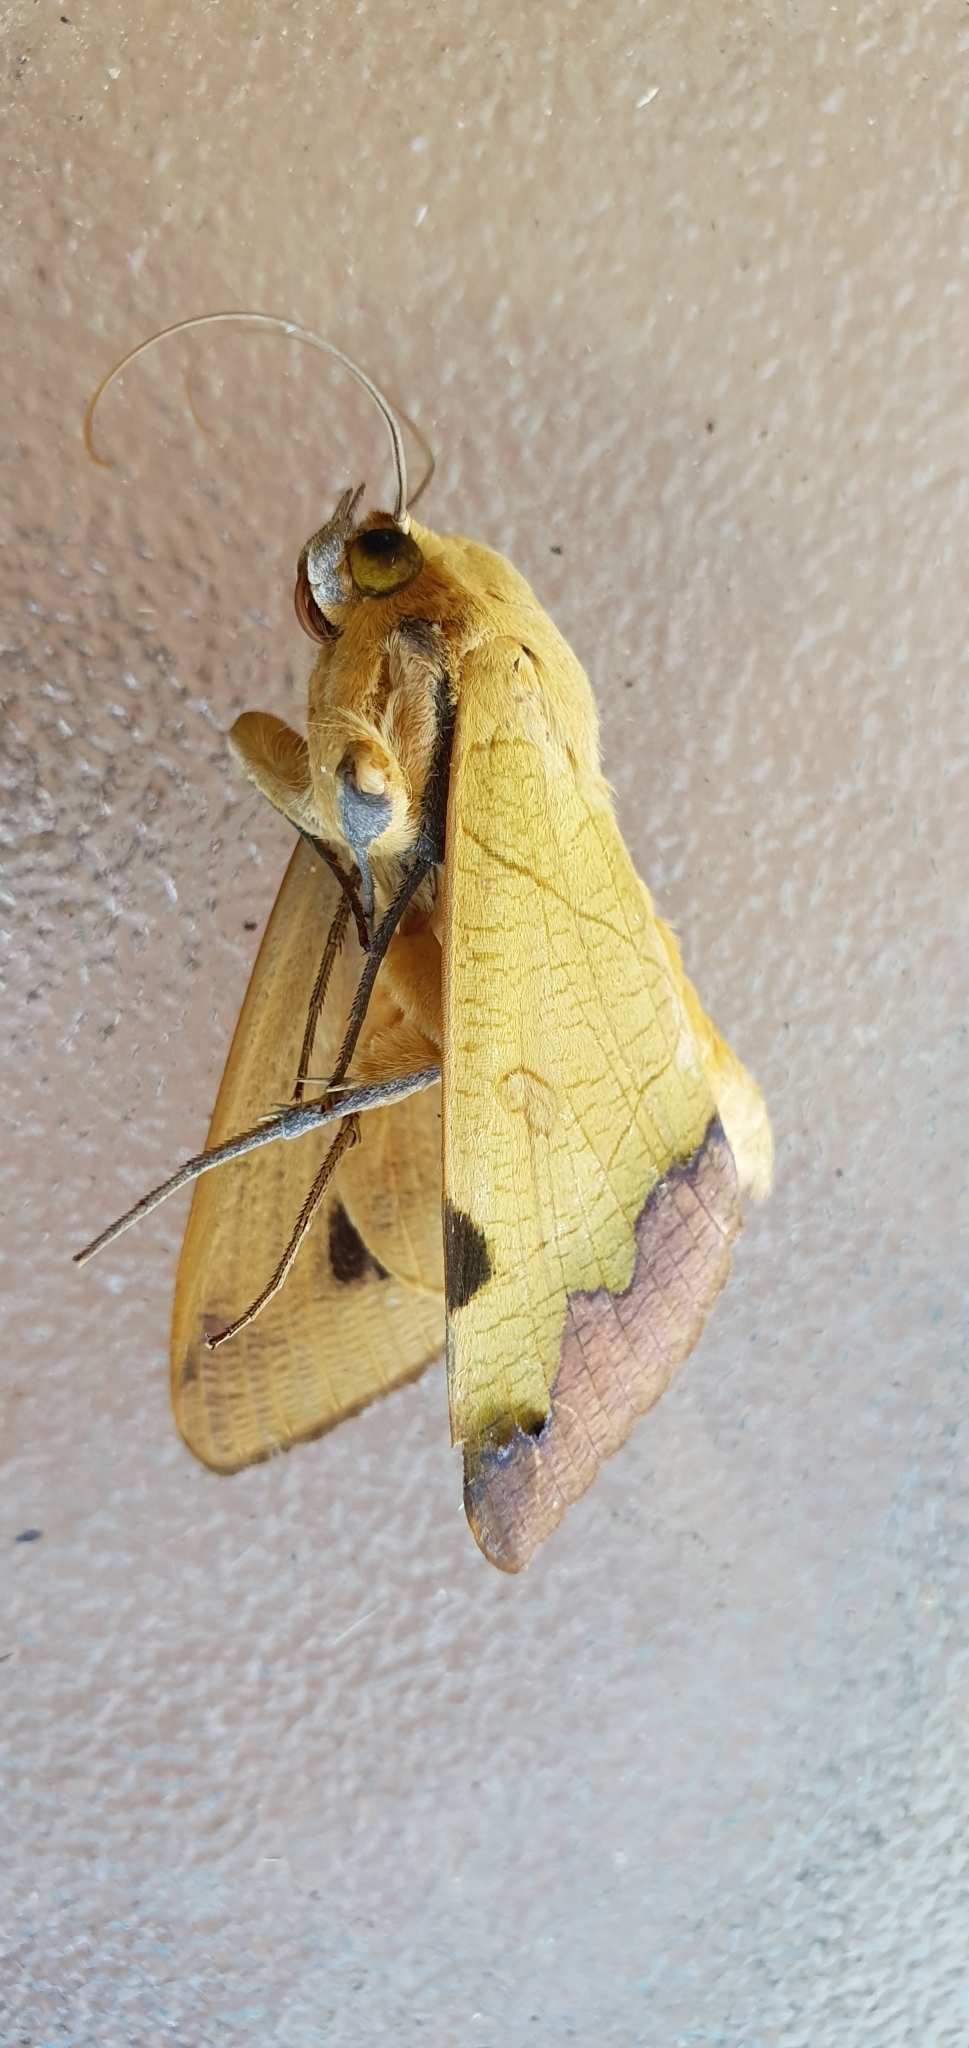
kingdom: Animalia
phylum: Arthropoda
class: Insecta
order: Lepidoptera
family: Erebidae
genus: Ophiusa
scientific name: Ophiusa tirhaca
